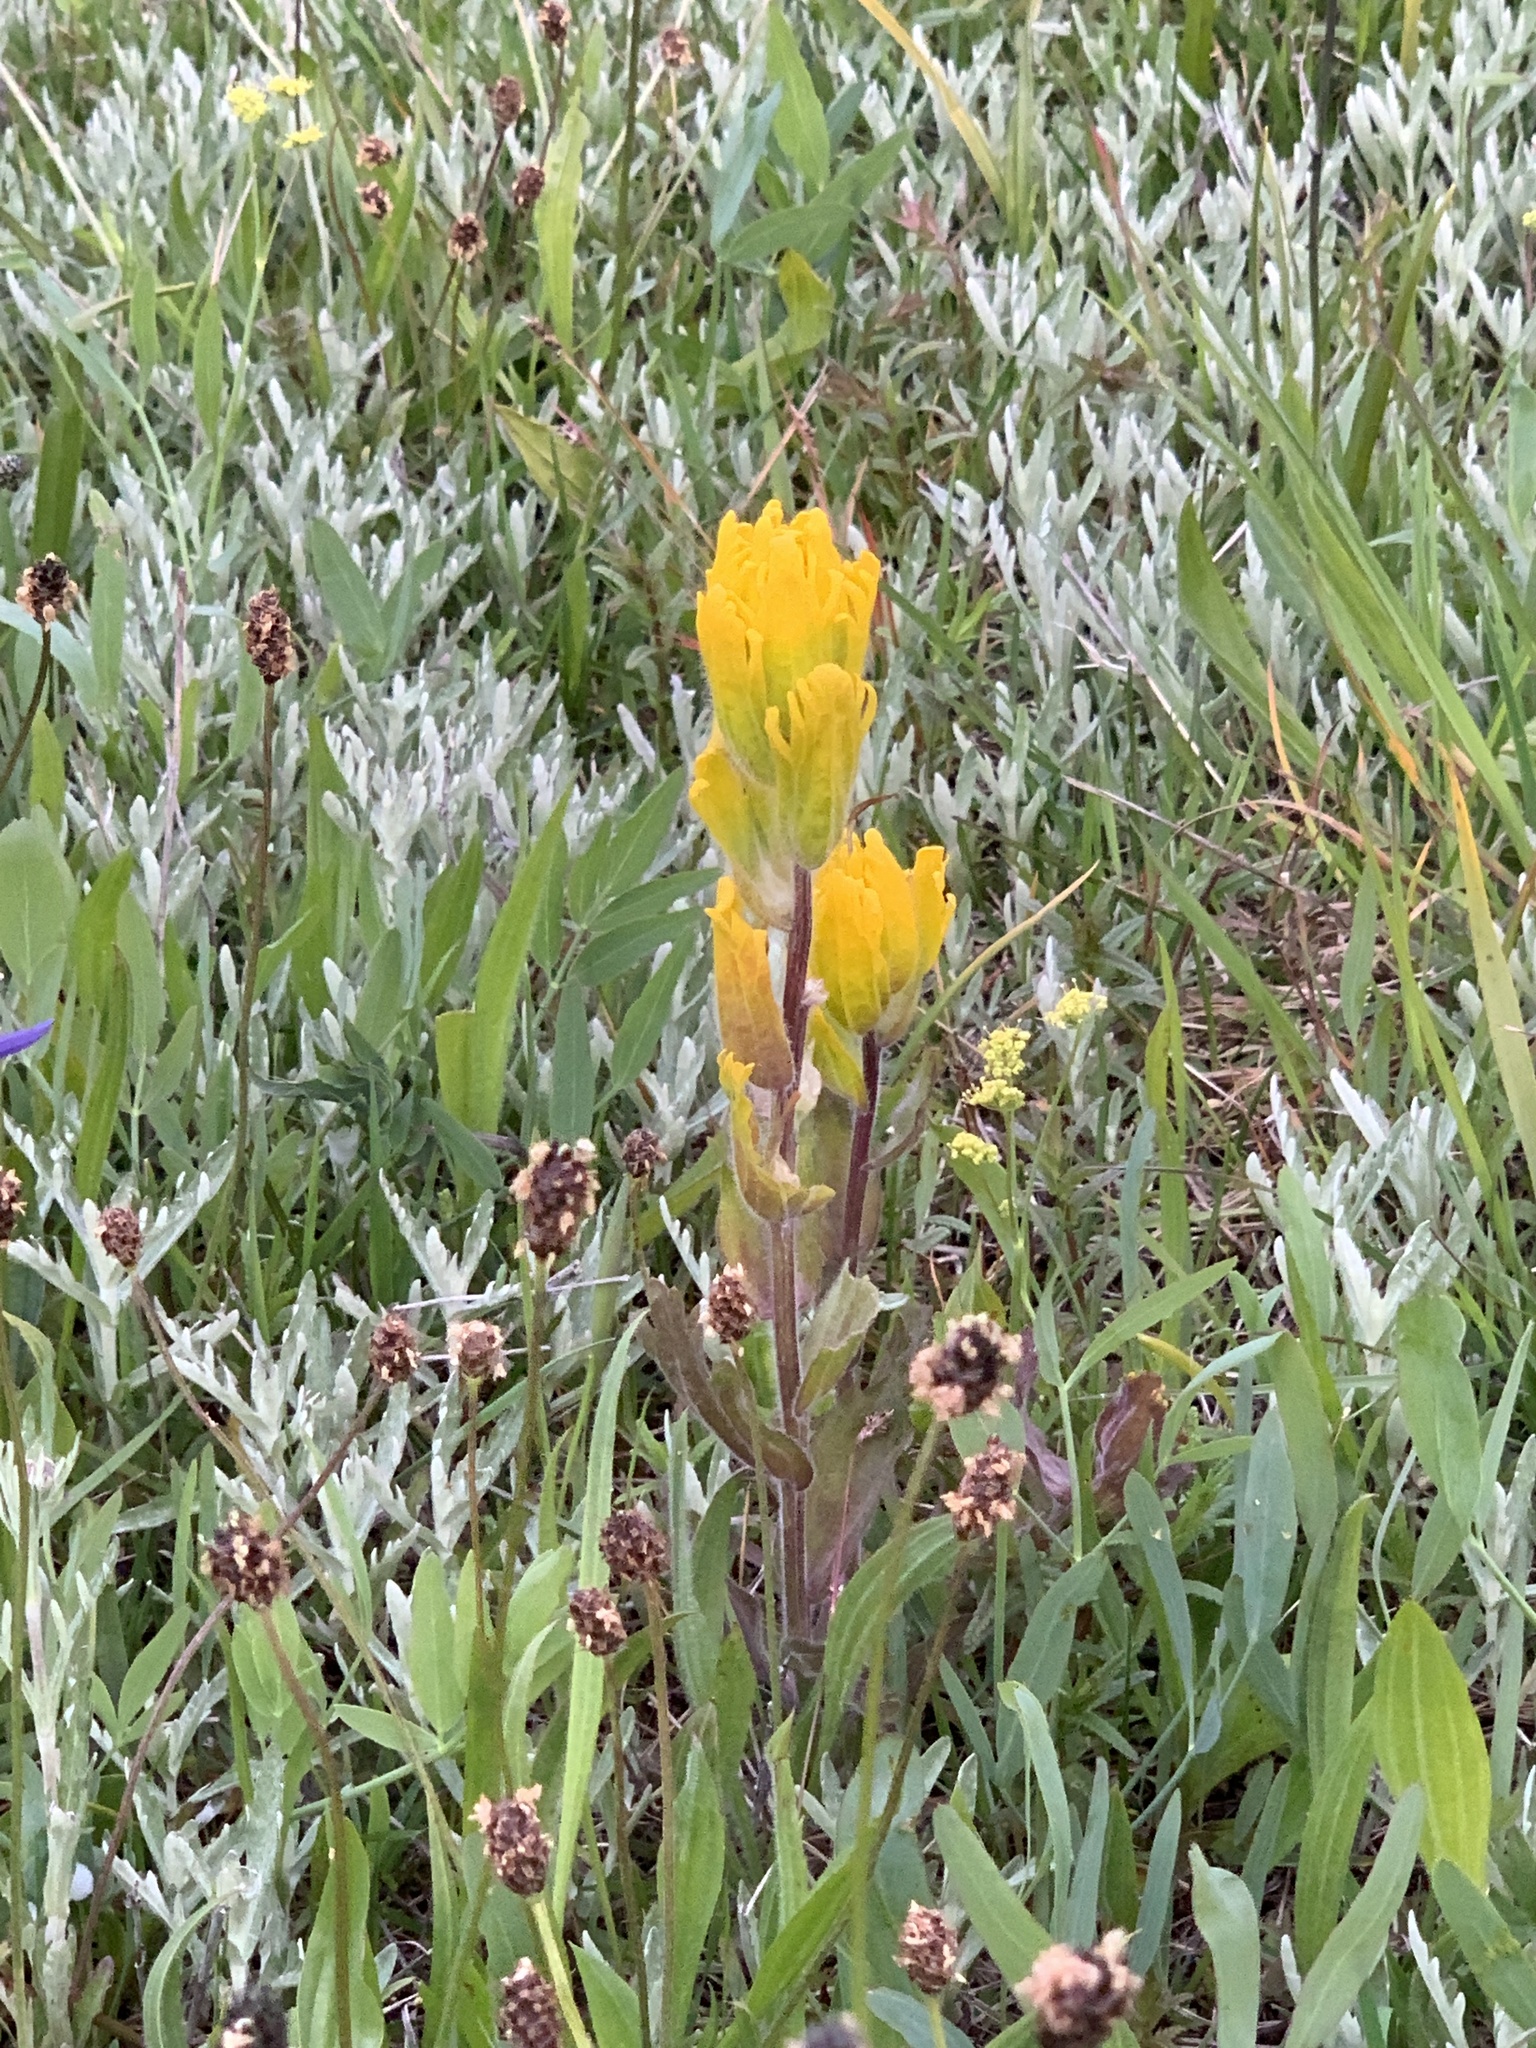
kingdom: Plantae
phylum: Tracheophyta
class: Magnoliopsida
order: Lamiales
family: Orobanchaceae
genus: Castilleja
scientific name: Castilleja levisecta
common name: Golden paintbrush
